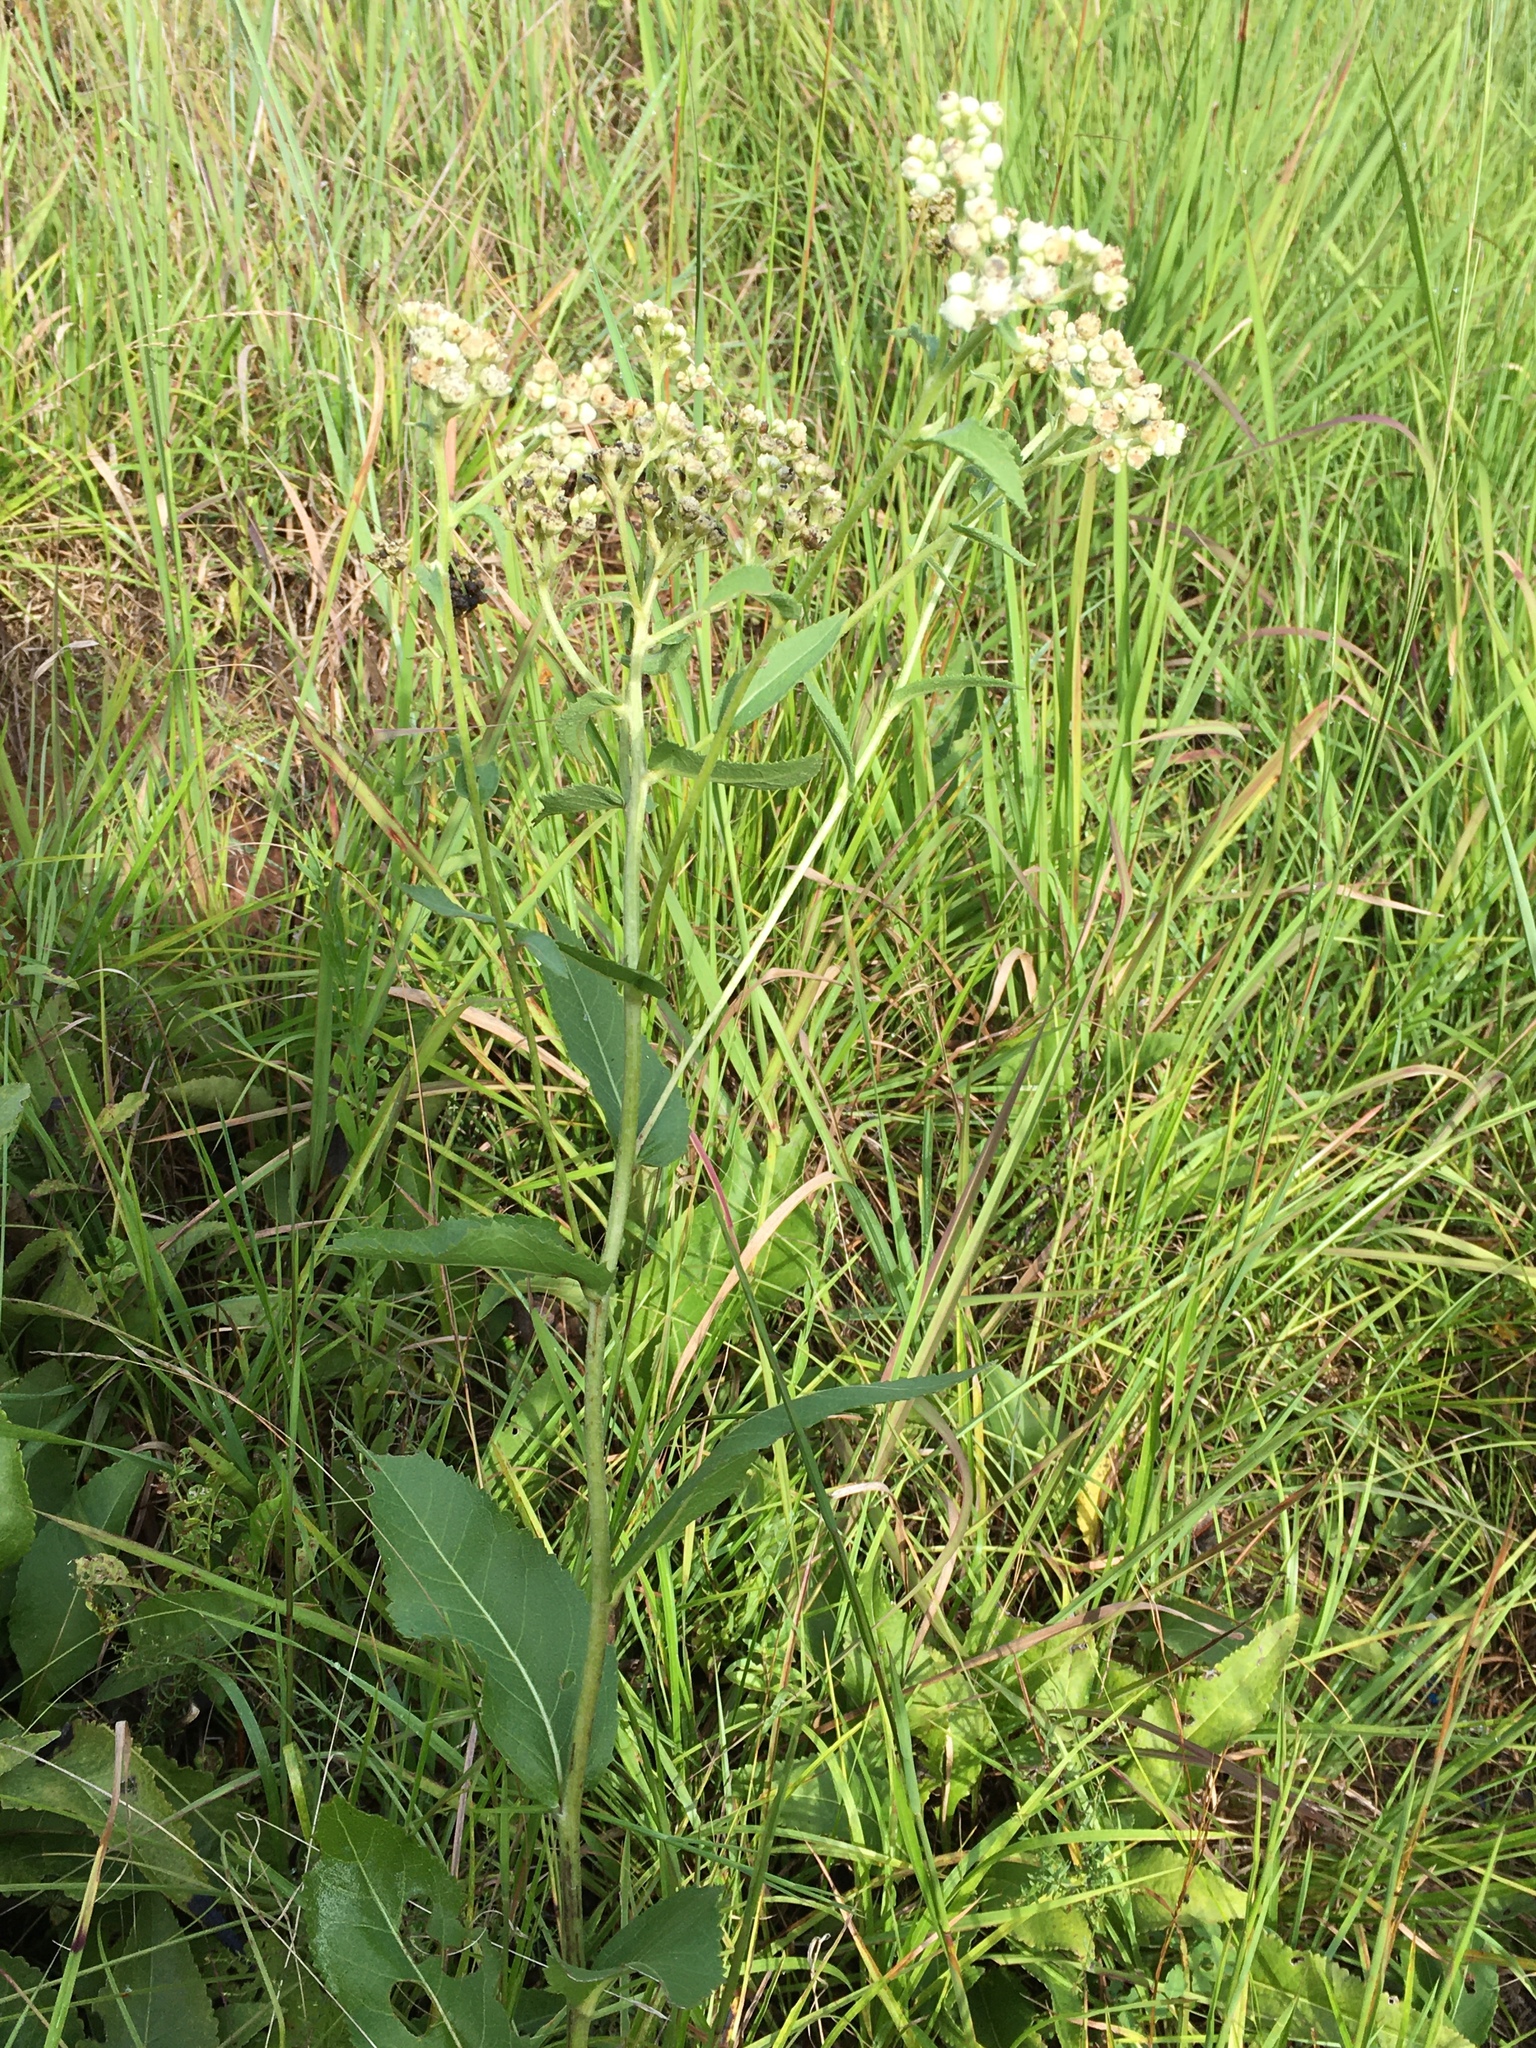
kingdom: Plantae
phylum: Tracheophyta
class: Magnoliopsida
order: Asterales
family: Asteraceae
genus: Parthenium
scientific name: Parthenium integrifolium
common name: American feverfew
